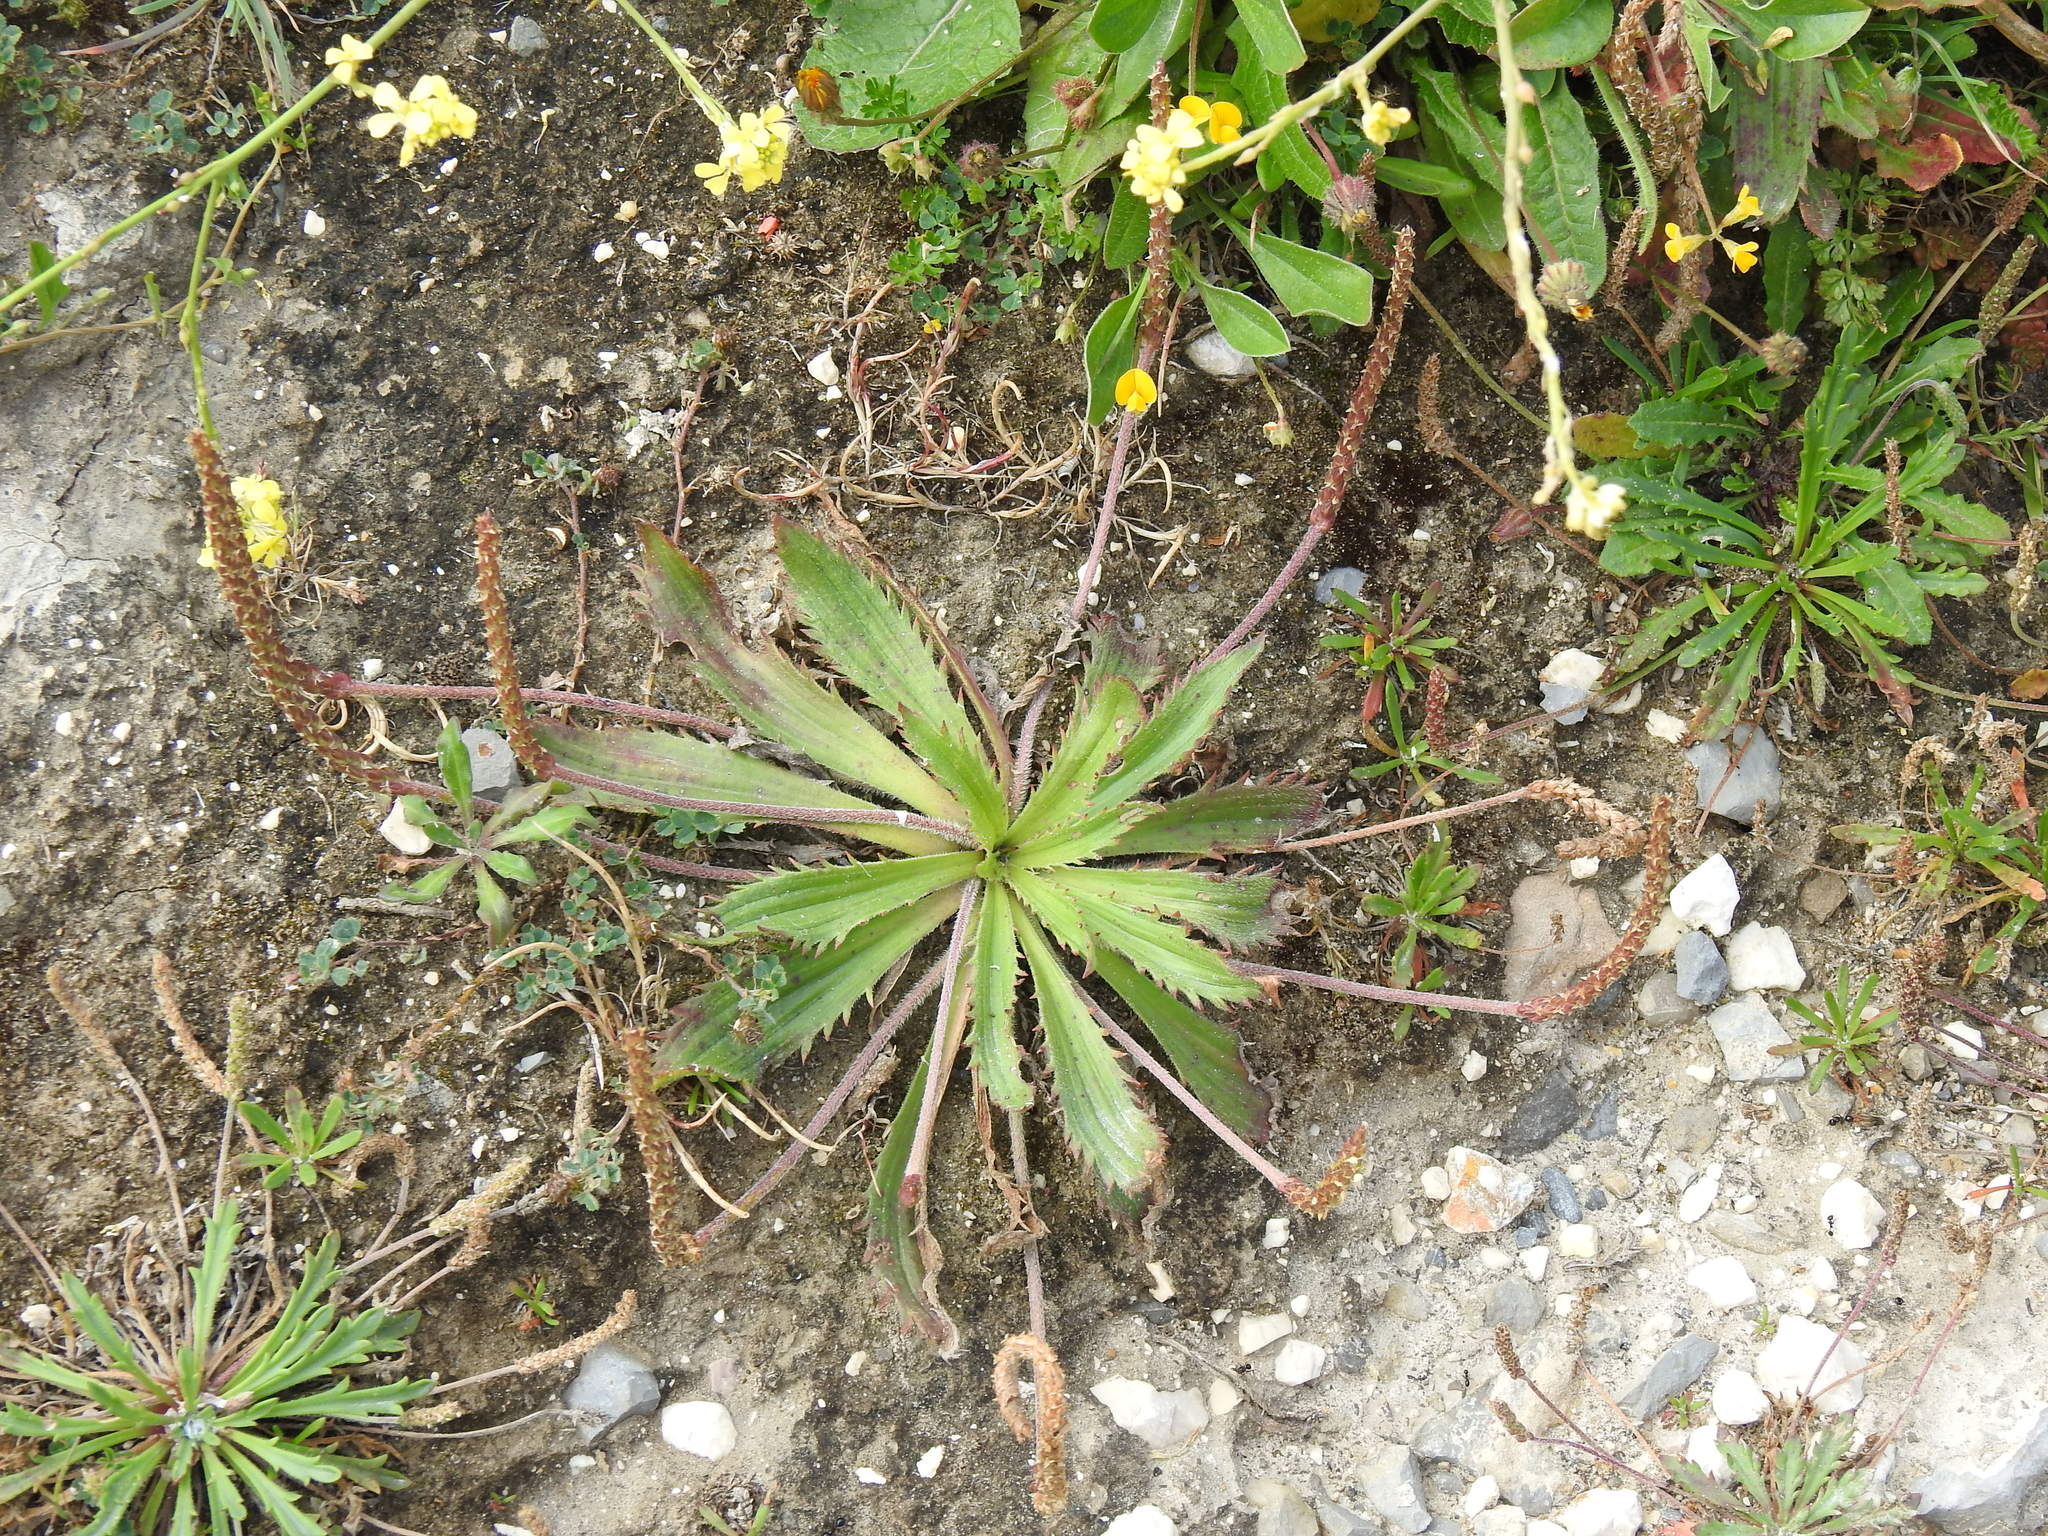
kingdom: Plantae
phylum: Tracheophyta
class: Magnoliopsida
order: Lamiales
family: Plantaginaceae
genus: Plantago
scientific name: Plantago serraria
